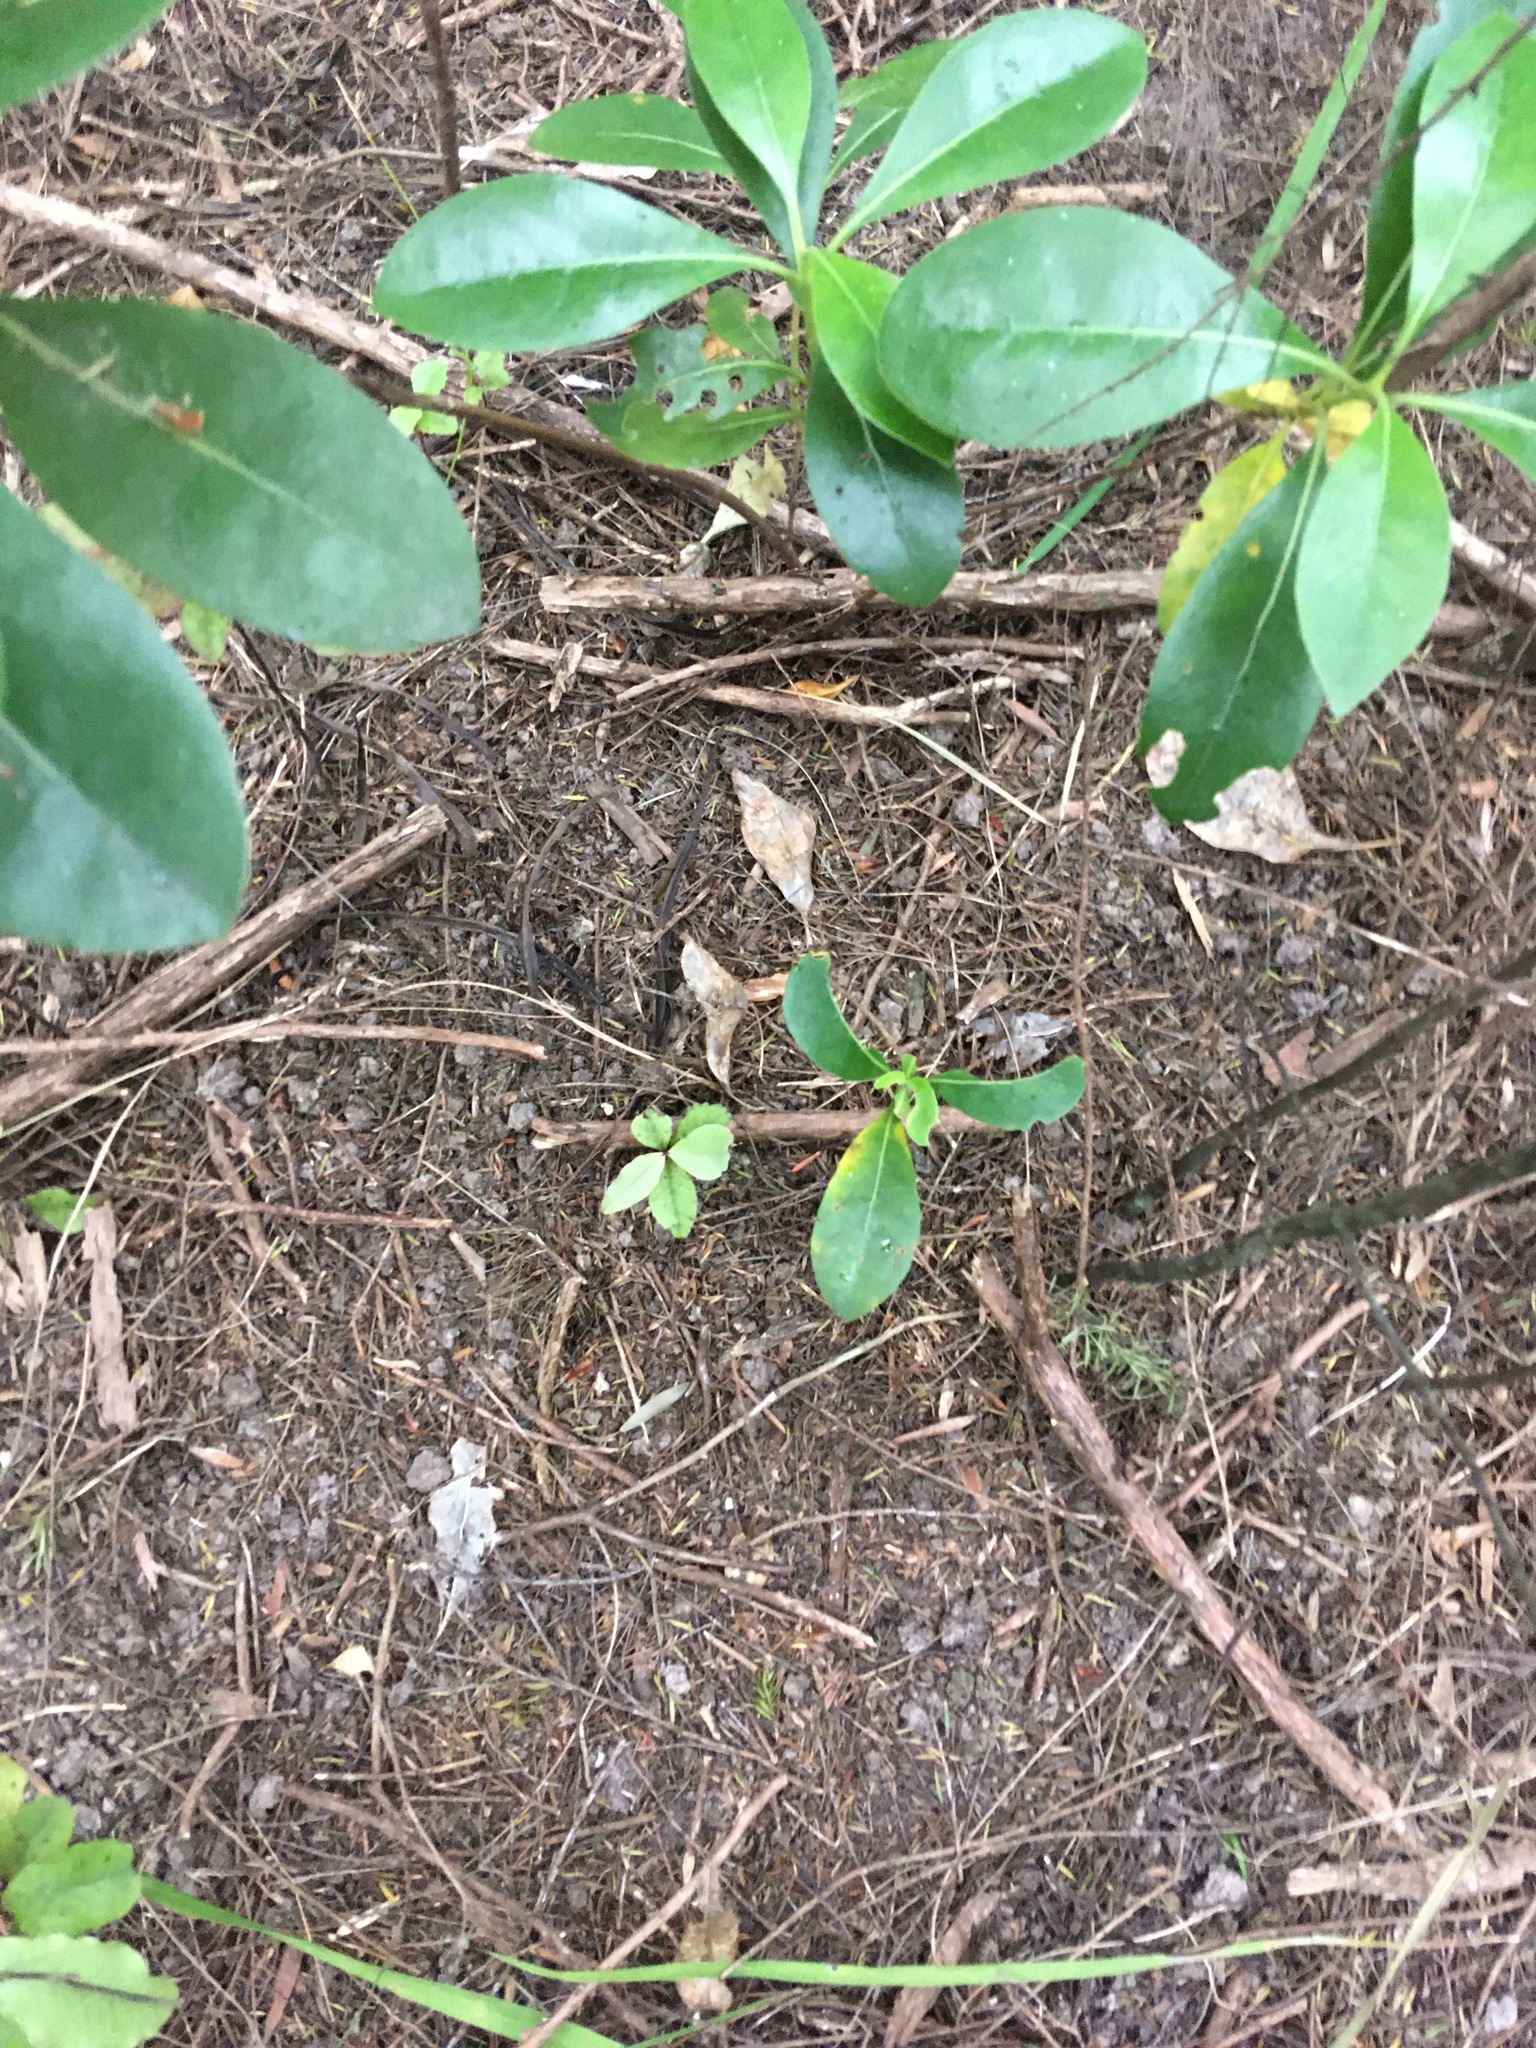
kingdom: Plantae
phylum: Tracheophyta
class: Magnoliopsida
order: Ericales
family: Primulaceae
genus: Myrsine
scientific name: Myrsine australis
